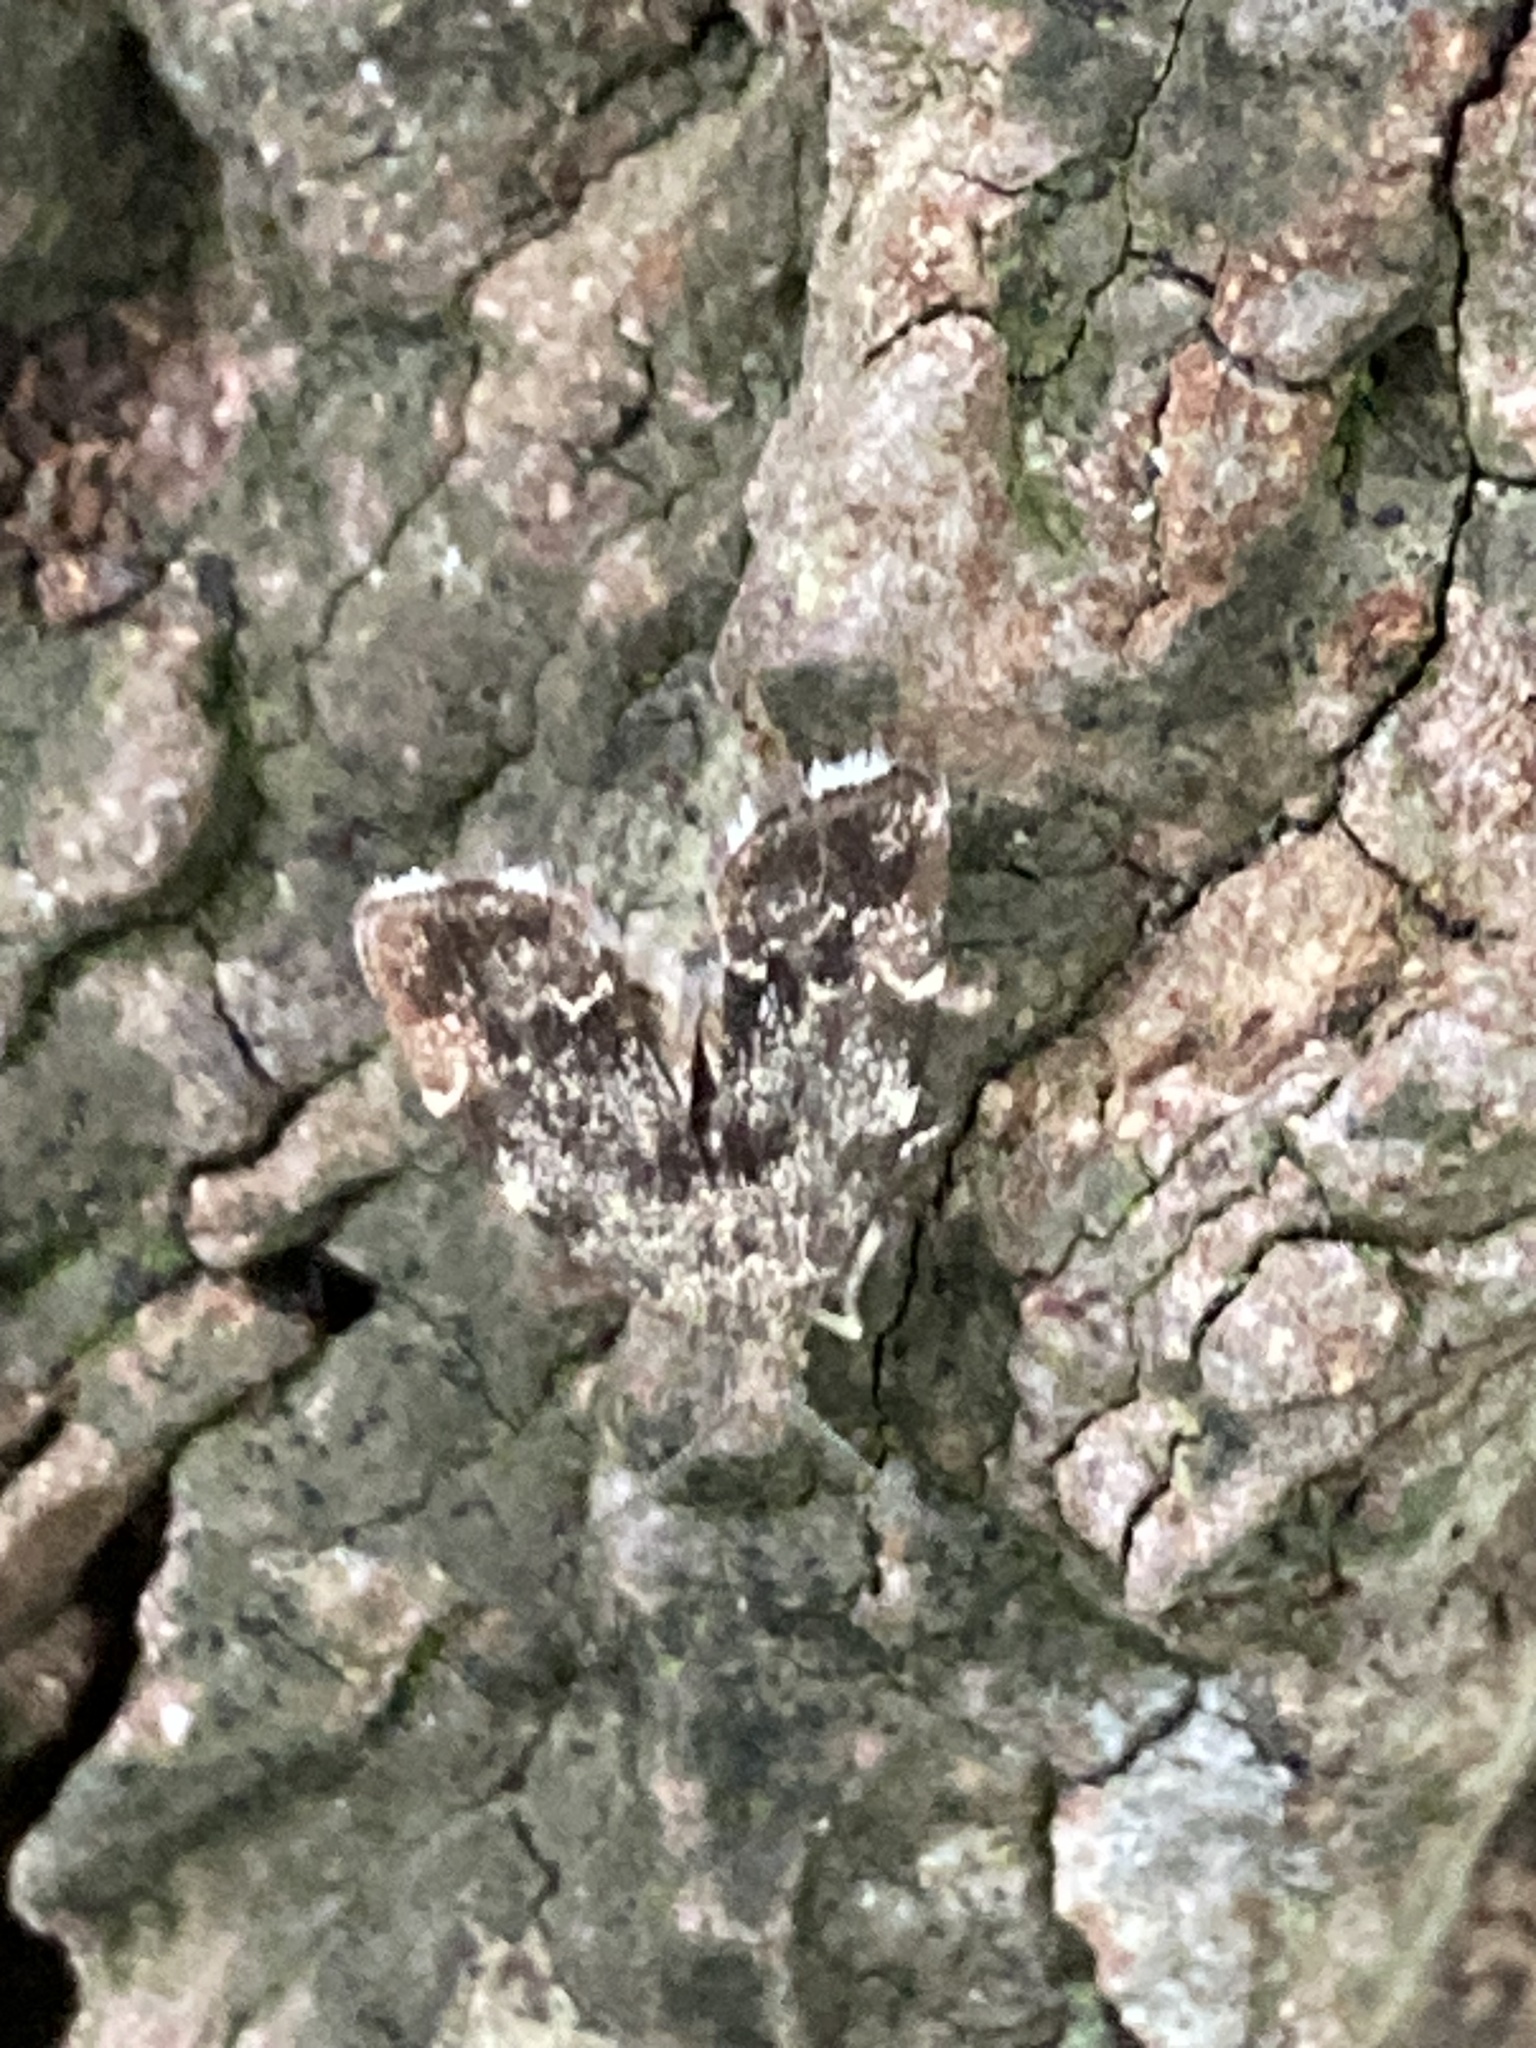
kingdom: Animalia
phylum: Arthropoda
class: Insecta
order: Lepidoptera
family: Choreutidae
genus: Anthophila
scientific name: Anthophila fabriciana
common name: Nettle-tap
